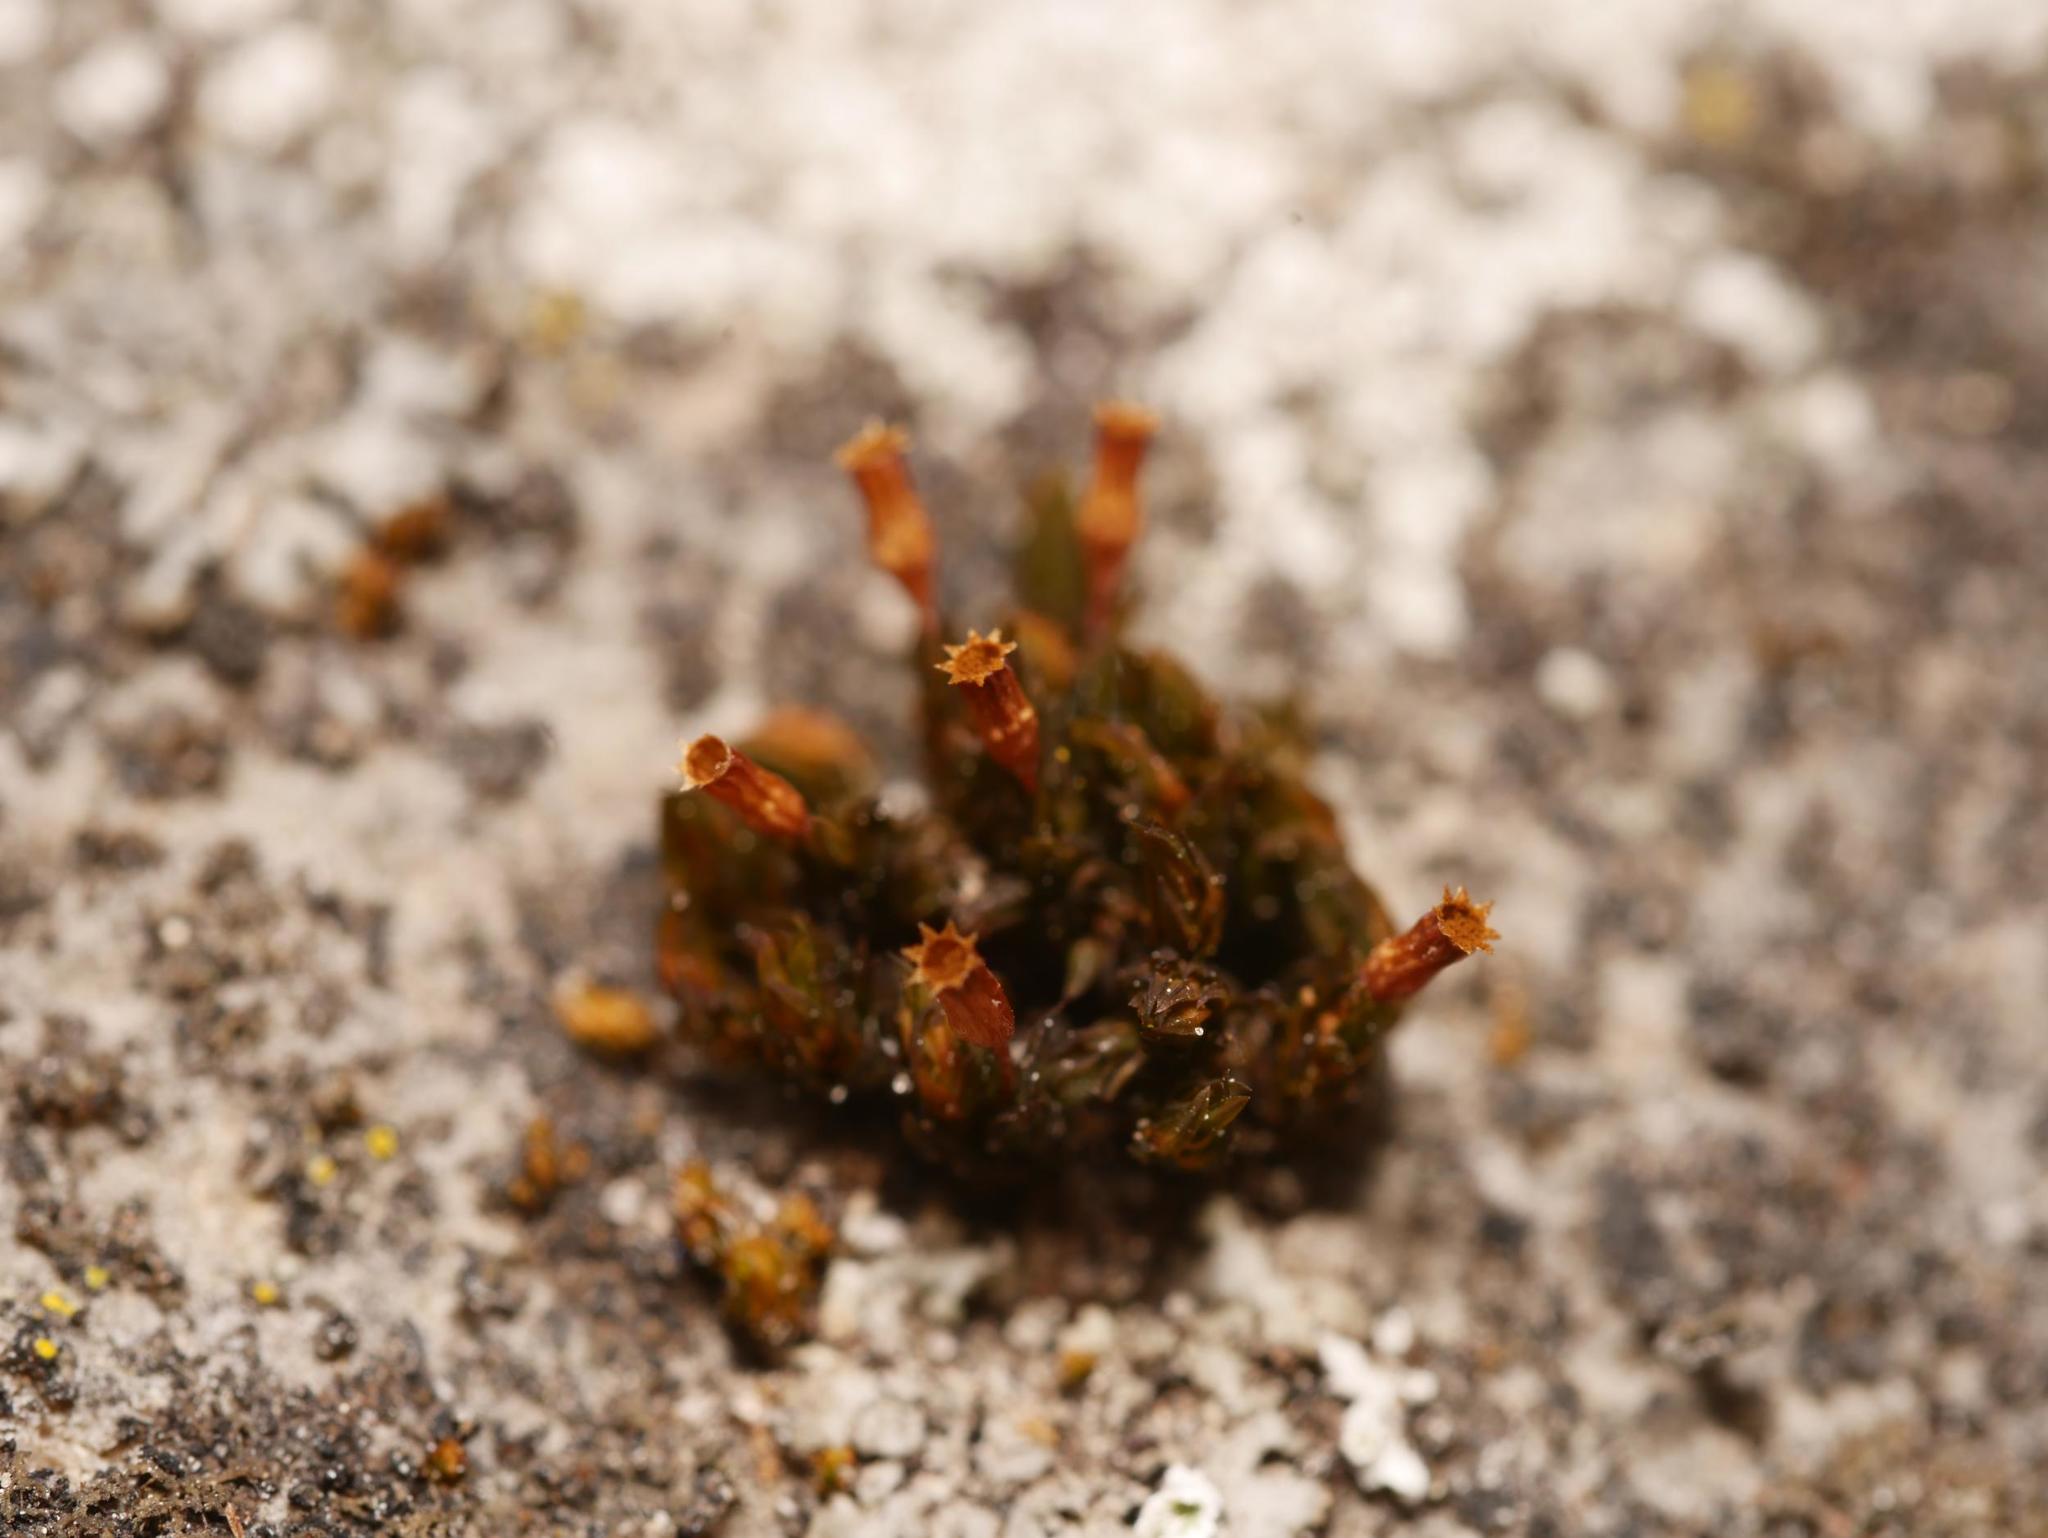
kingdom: Plantae
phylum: Bryophyta
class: Bryopsida
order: Orthotrichales
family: Orthotrichaceae
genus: Orthotrichum
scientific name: Orthotrichum anomalum
